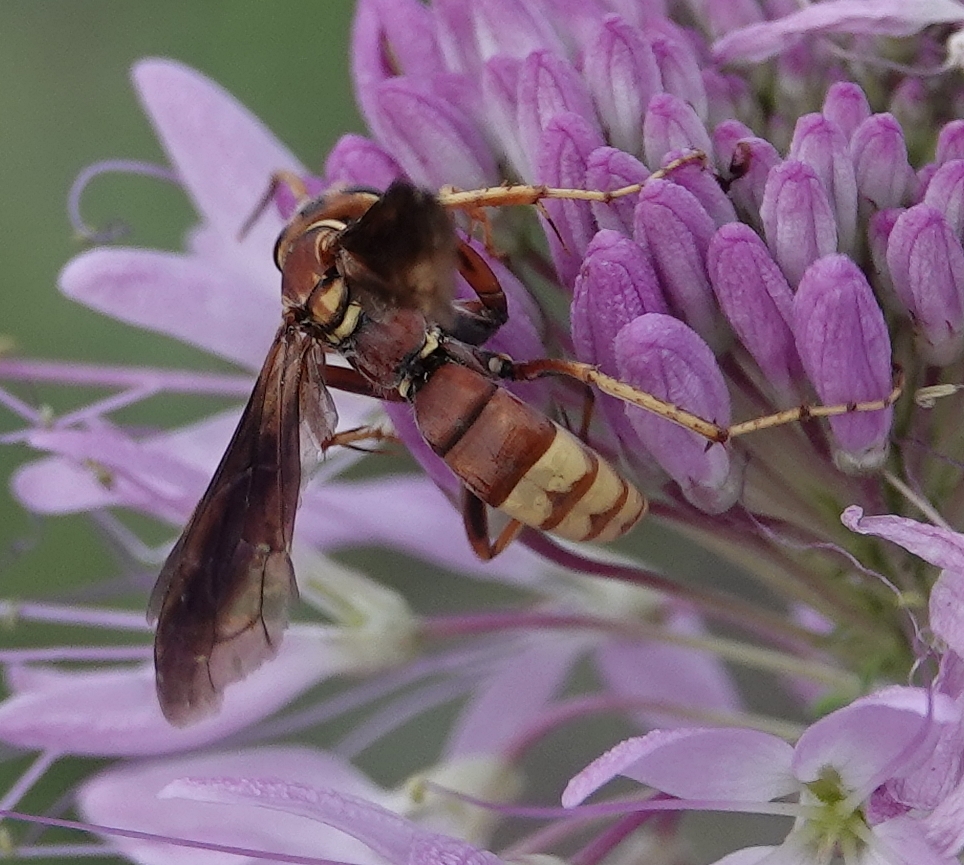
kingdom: Animalia
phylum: Arthropoda
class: Insecta
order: Hymenoptera
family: Pompilidae
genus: Poecilopompilus
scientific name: Poecilopompilus algidus
